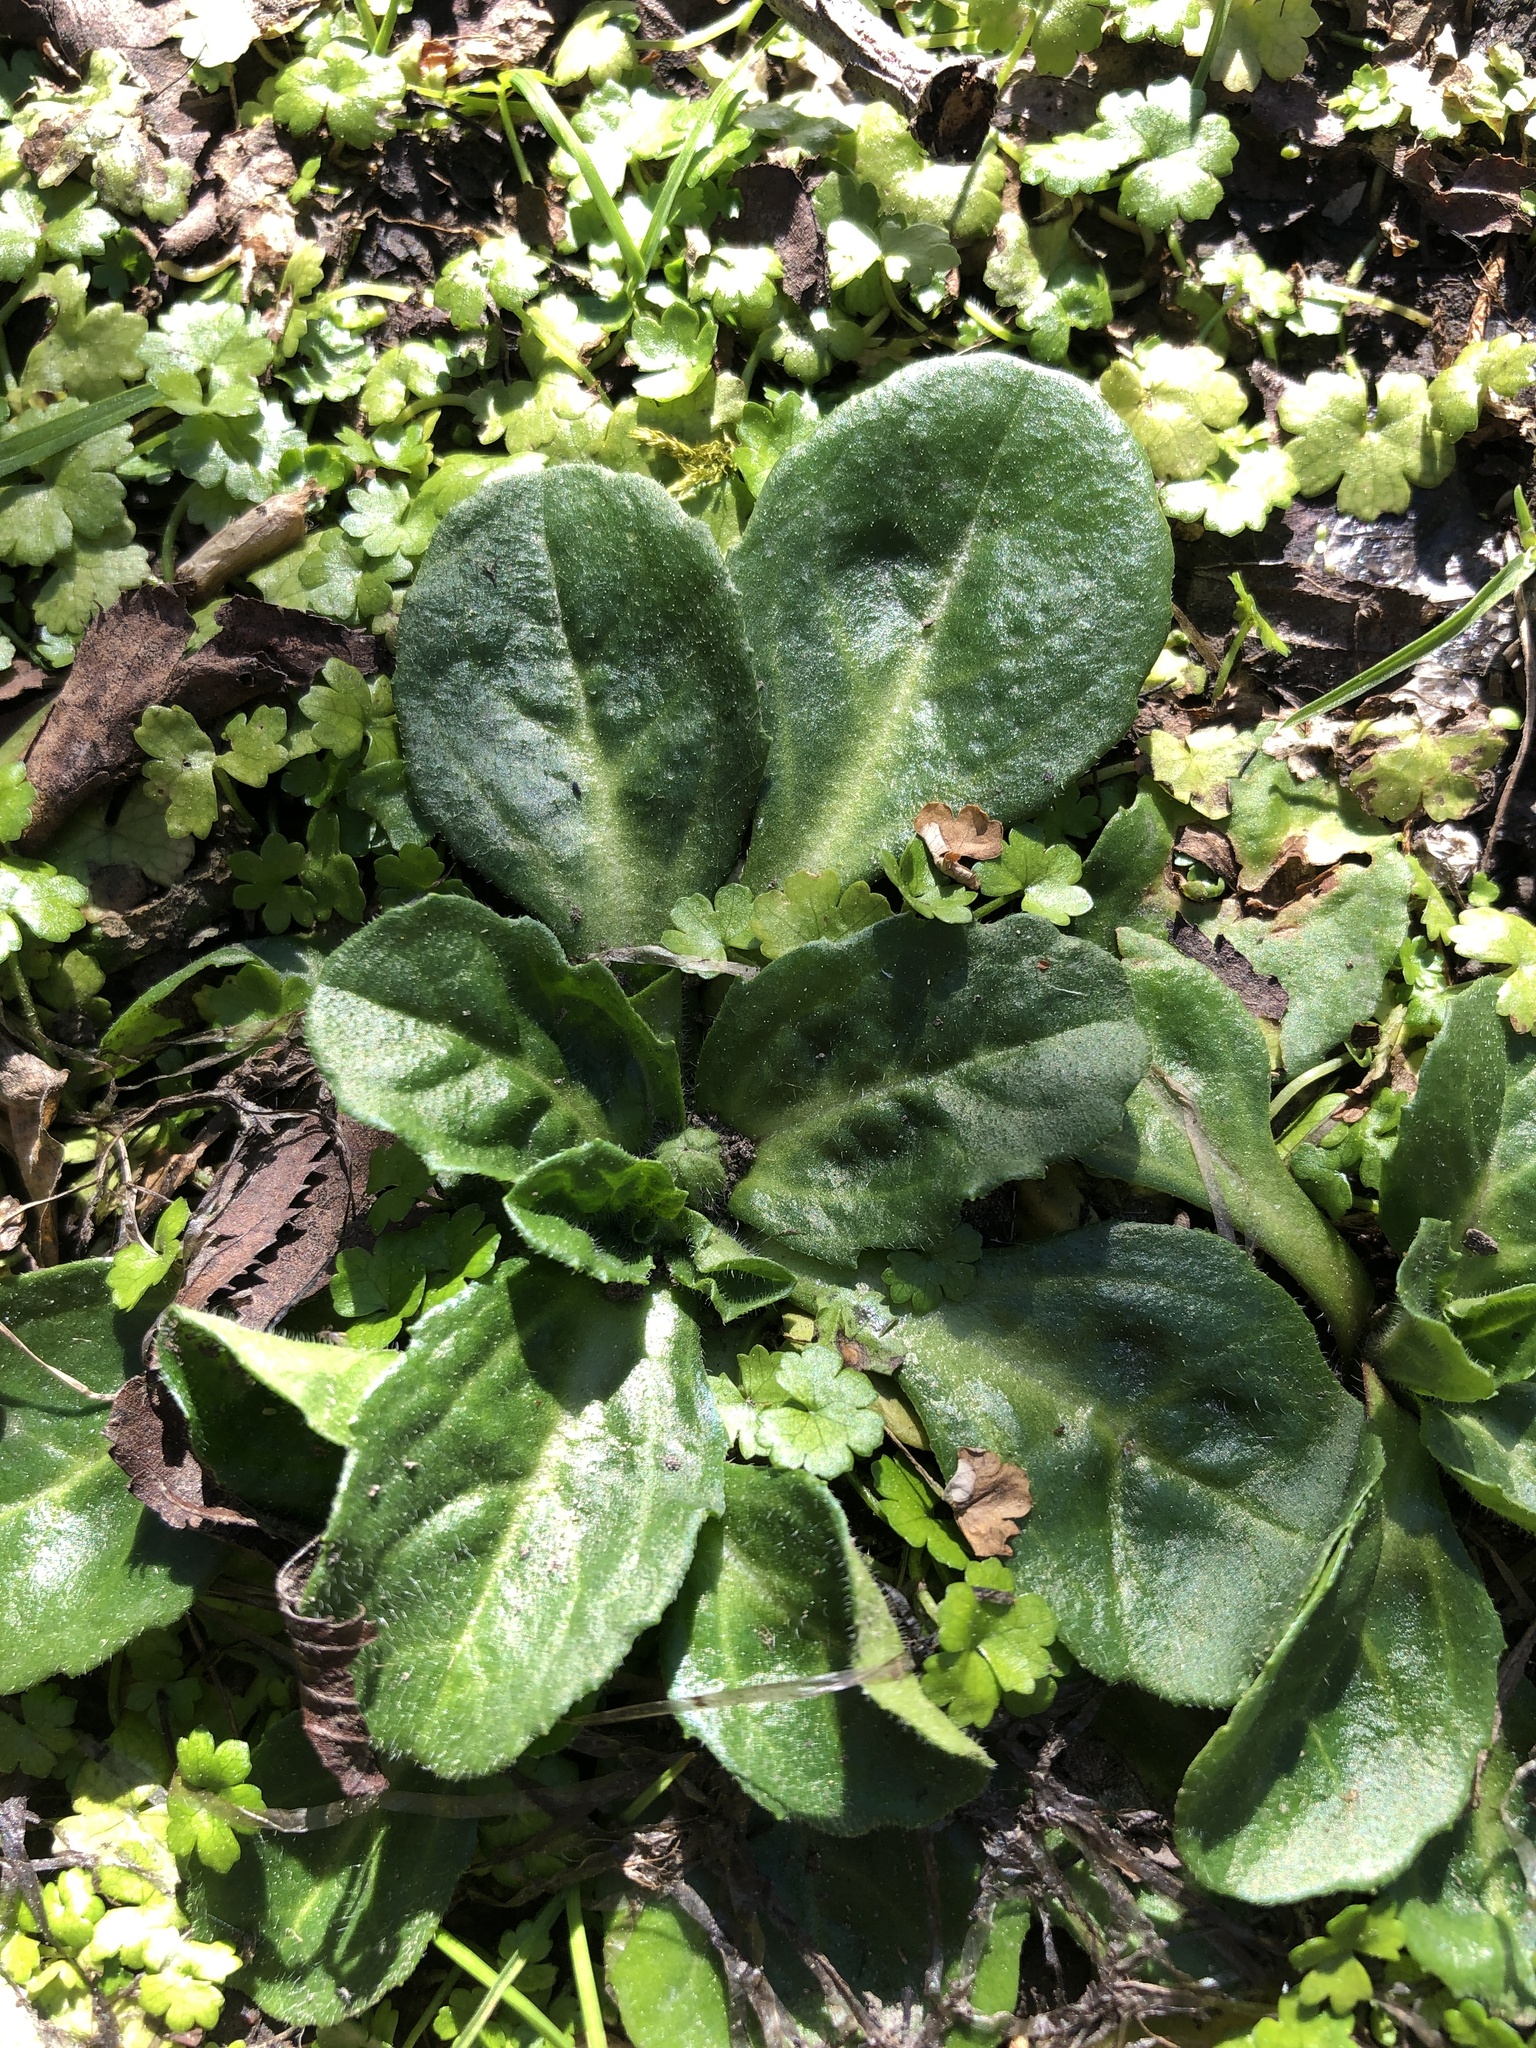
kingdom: Plantae
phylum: Tracheophyta
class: Magnoliopsida
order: Asterales
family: Asteraceae
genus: Bellis
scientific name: Bellis perennis
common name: Lawndaisy
